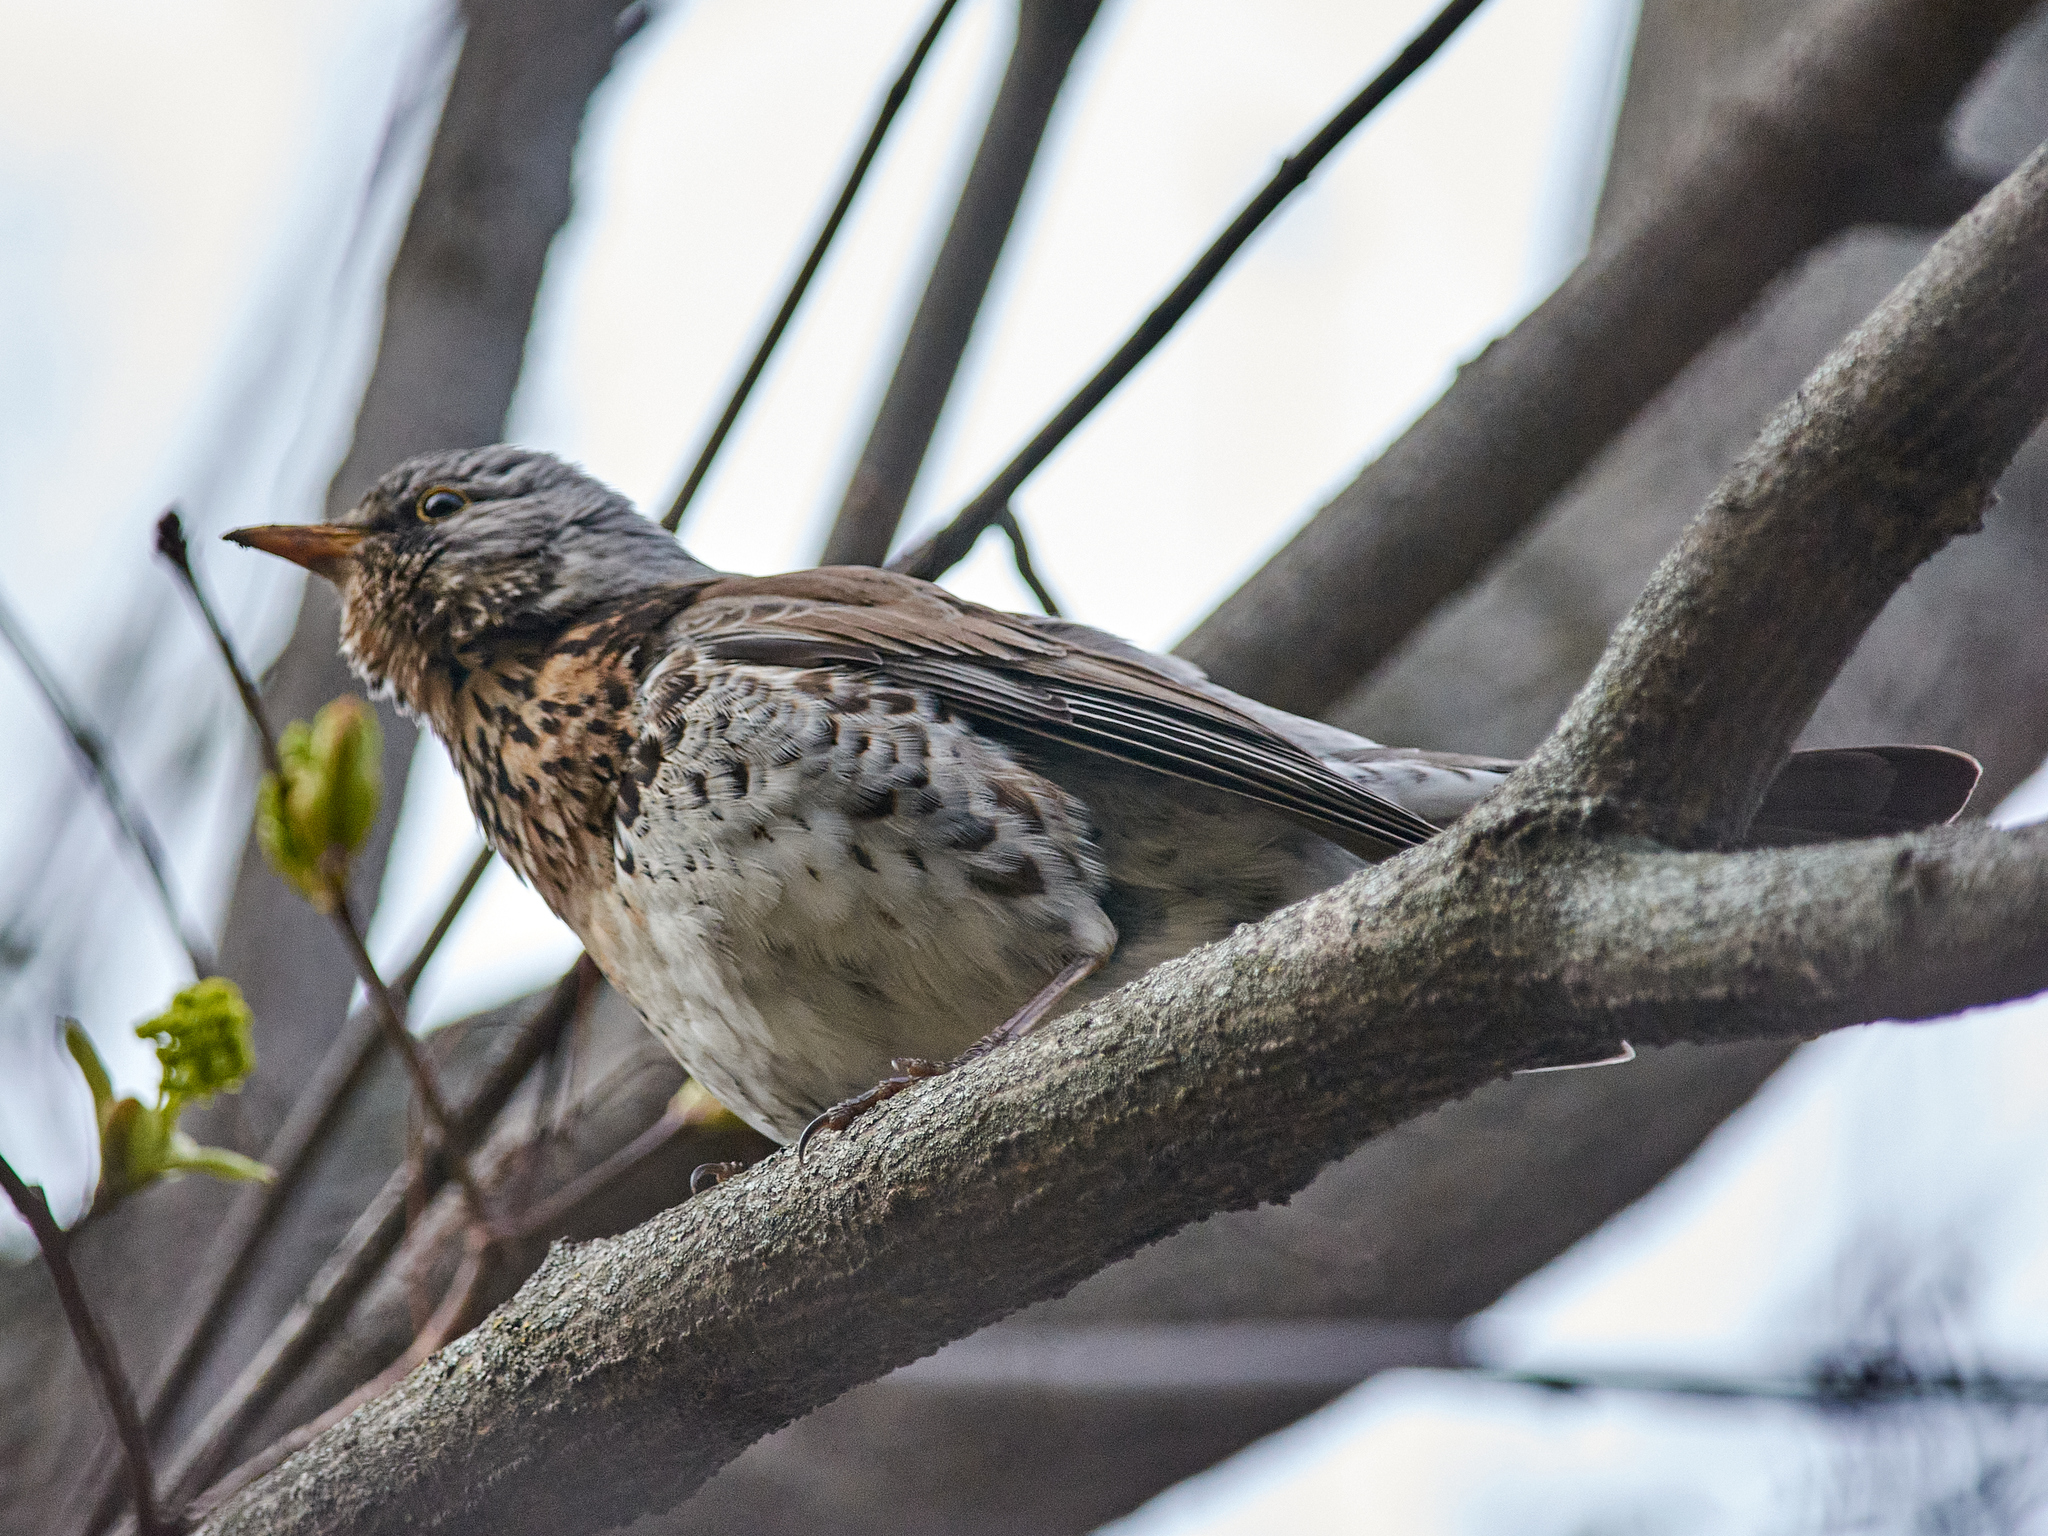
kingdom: Animalia
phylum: Chordata
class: Aves
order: Passeriformes
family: Turdidae
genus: Turdus
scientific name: Turdus pilaris
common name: Fieldfare
